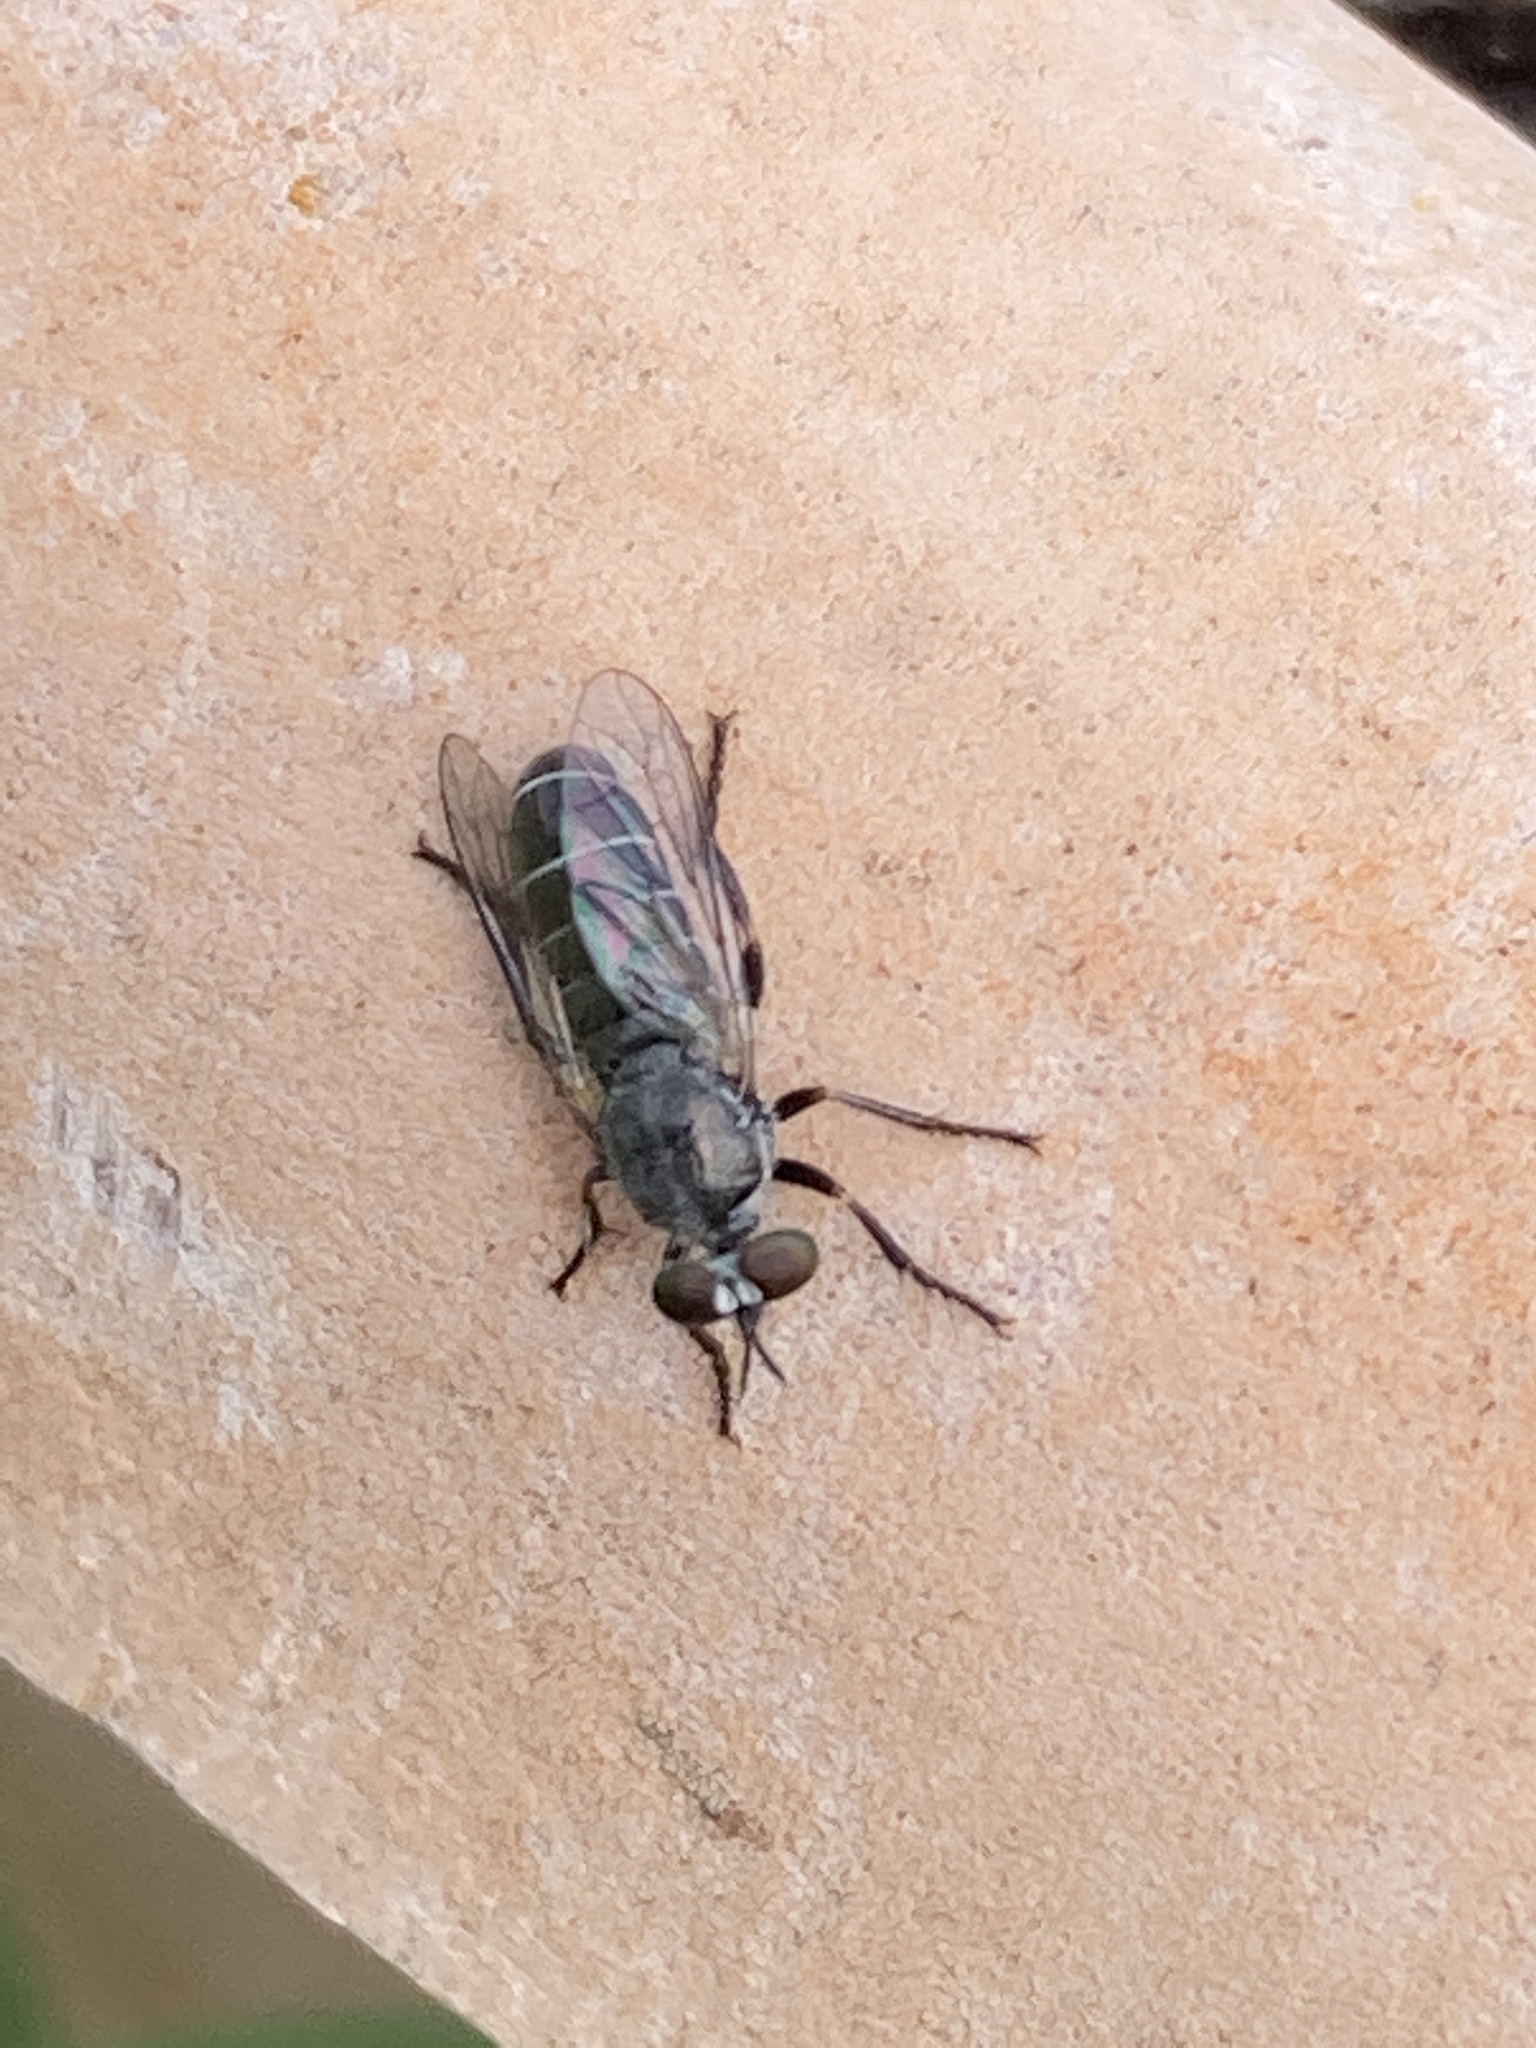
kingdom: Animalia
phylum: Arthropoda
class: Insecta
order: Diptera
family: Asilidae
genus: Atomosia
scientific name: Atomosia melanopogon
